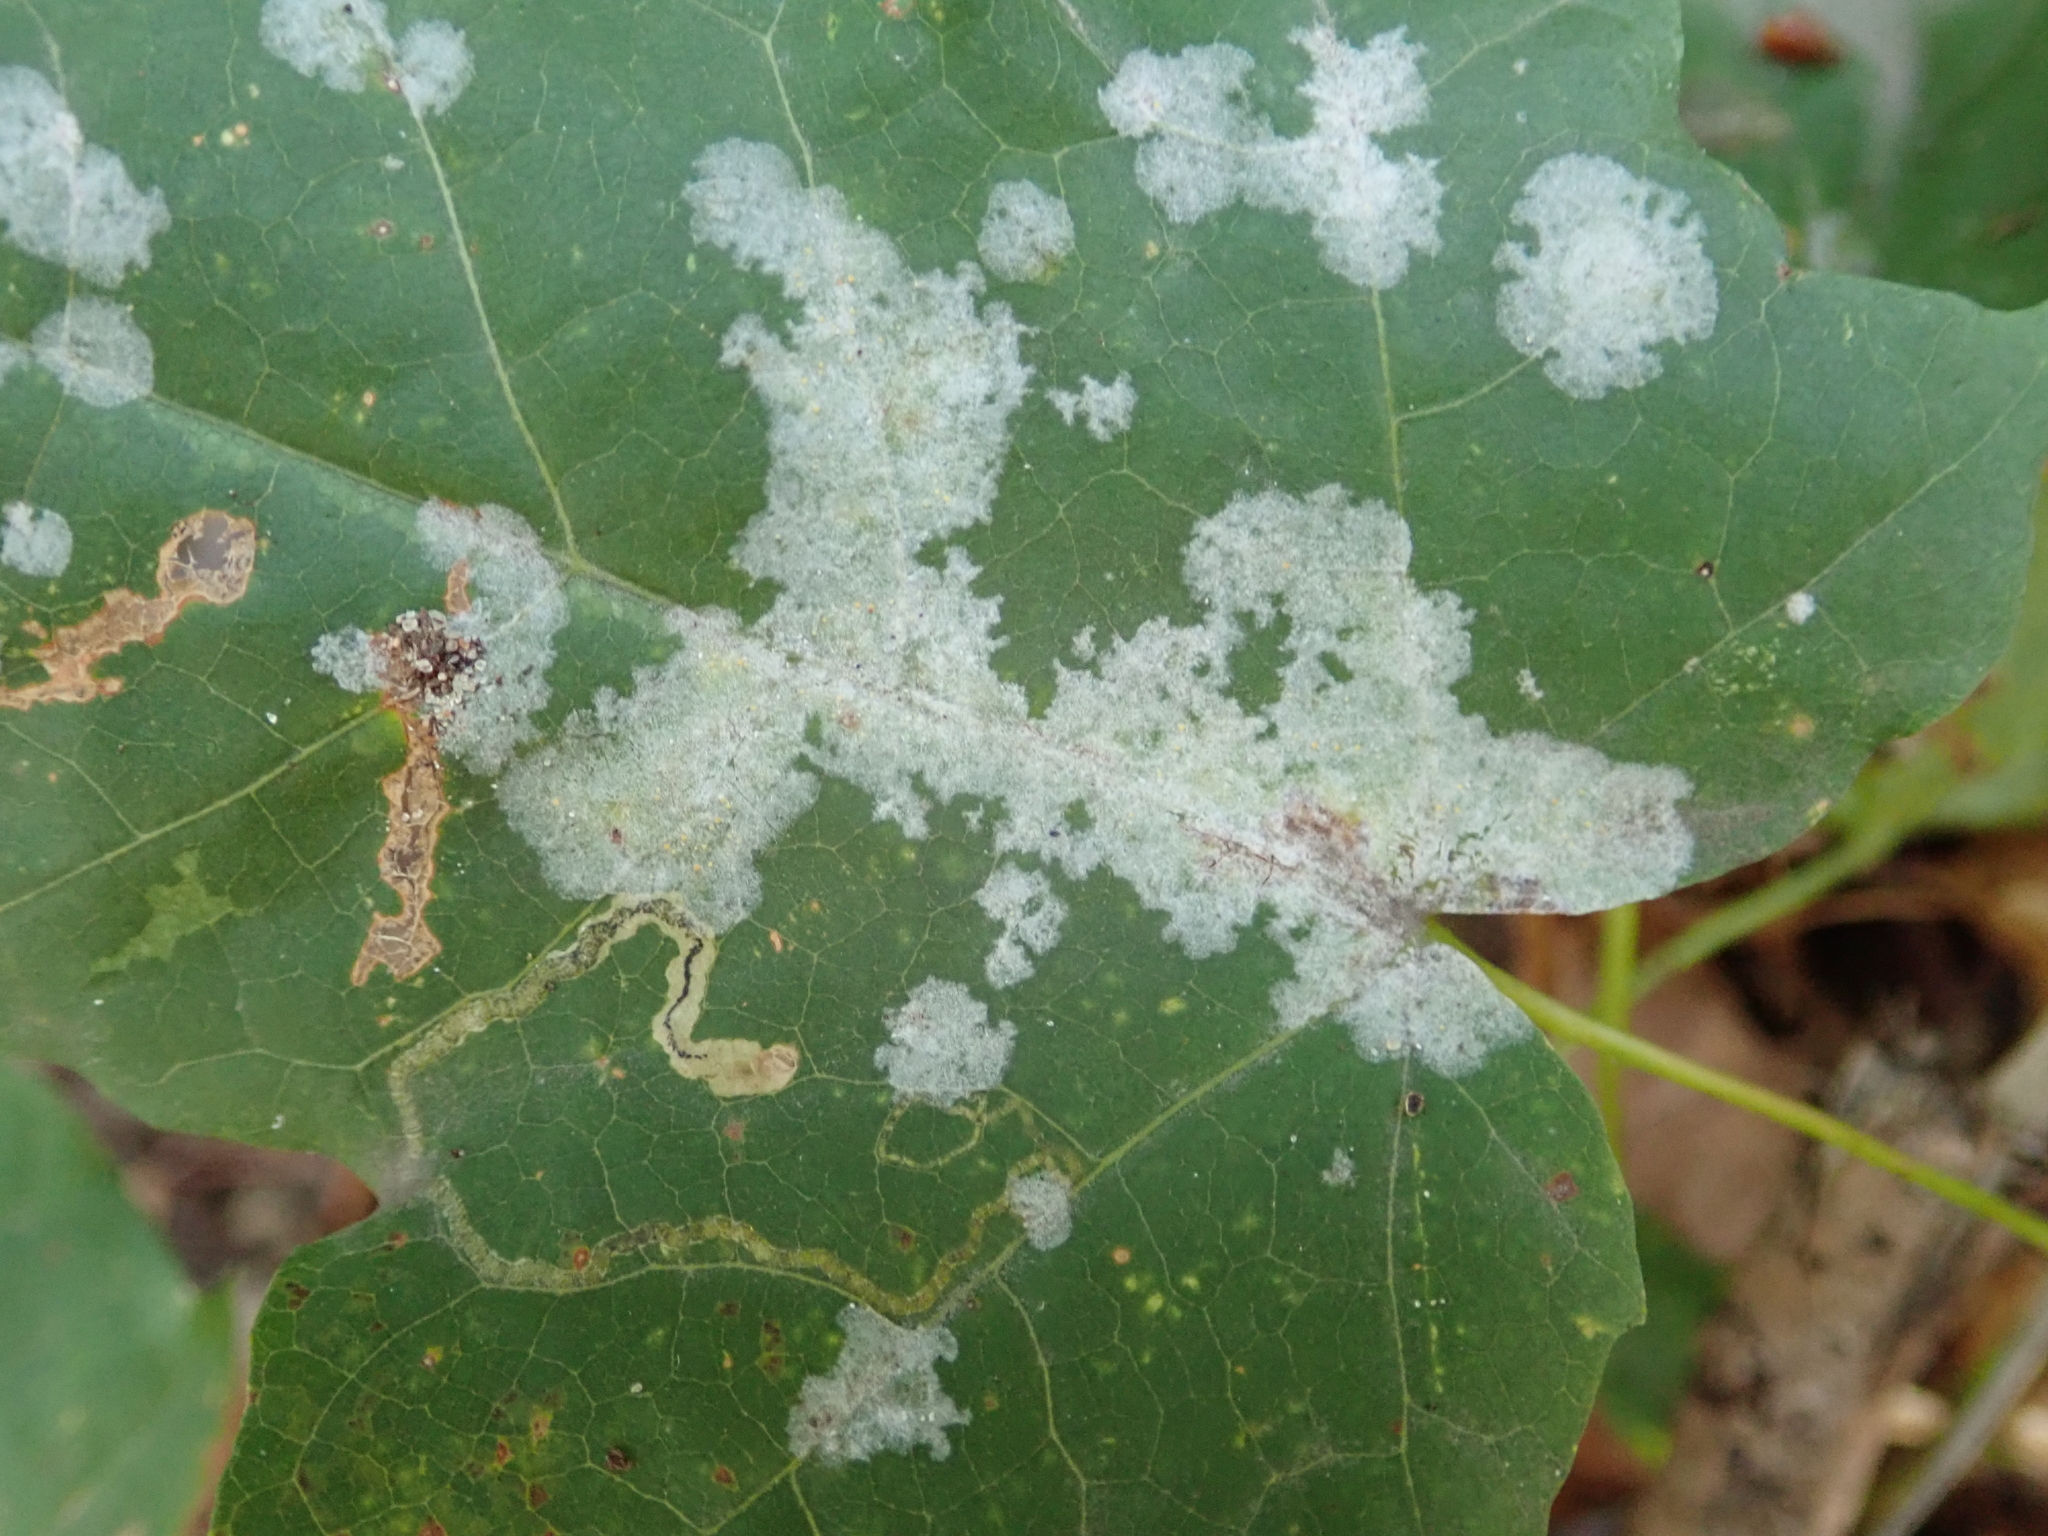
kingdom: Fungi
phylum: Ascomycota
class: Leotiomycetes
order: Helotiales
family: Erysiphaceae
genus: Sawadaea
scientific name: Sawadaea tulasnei
